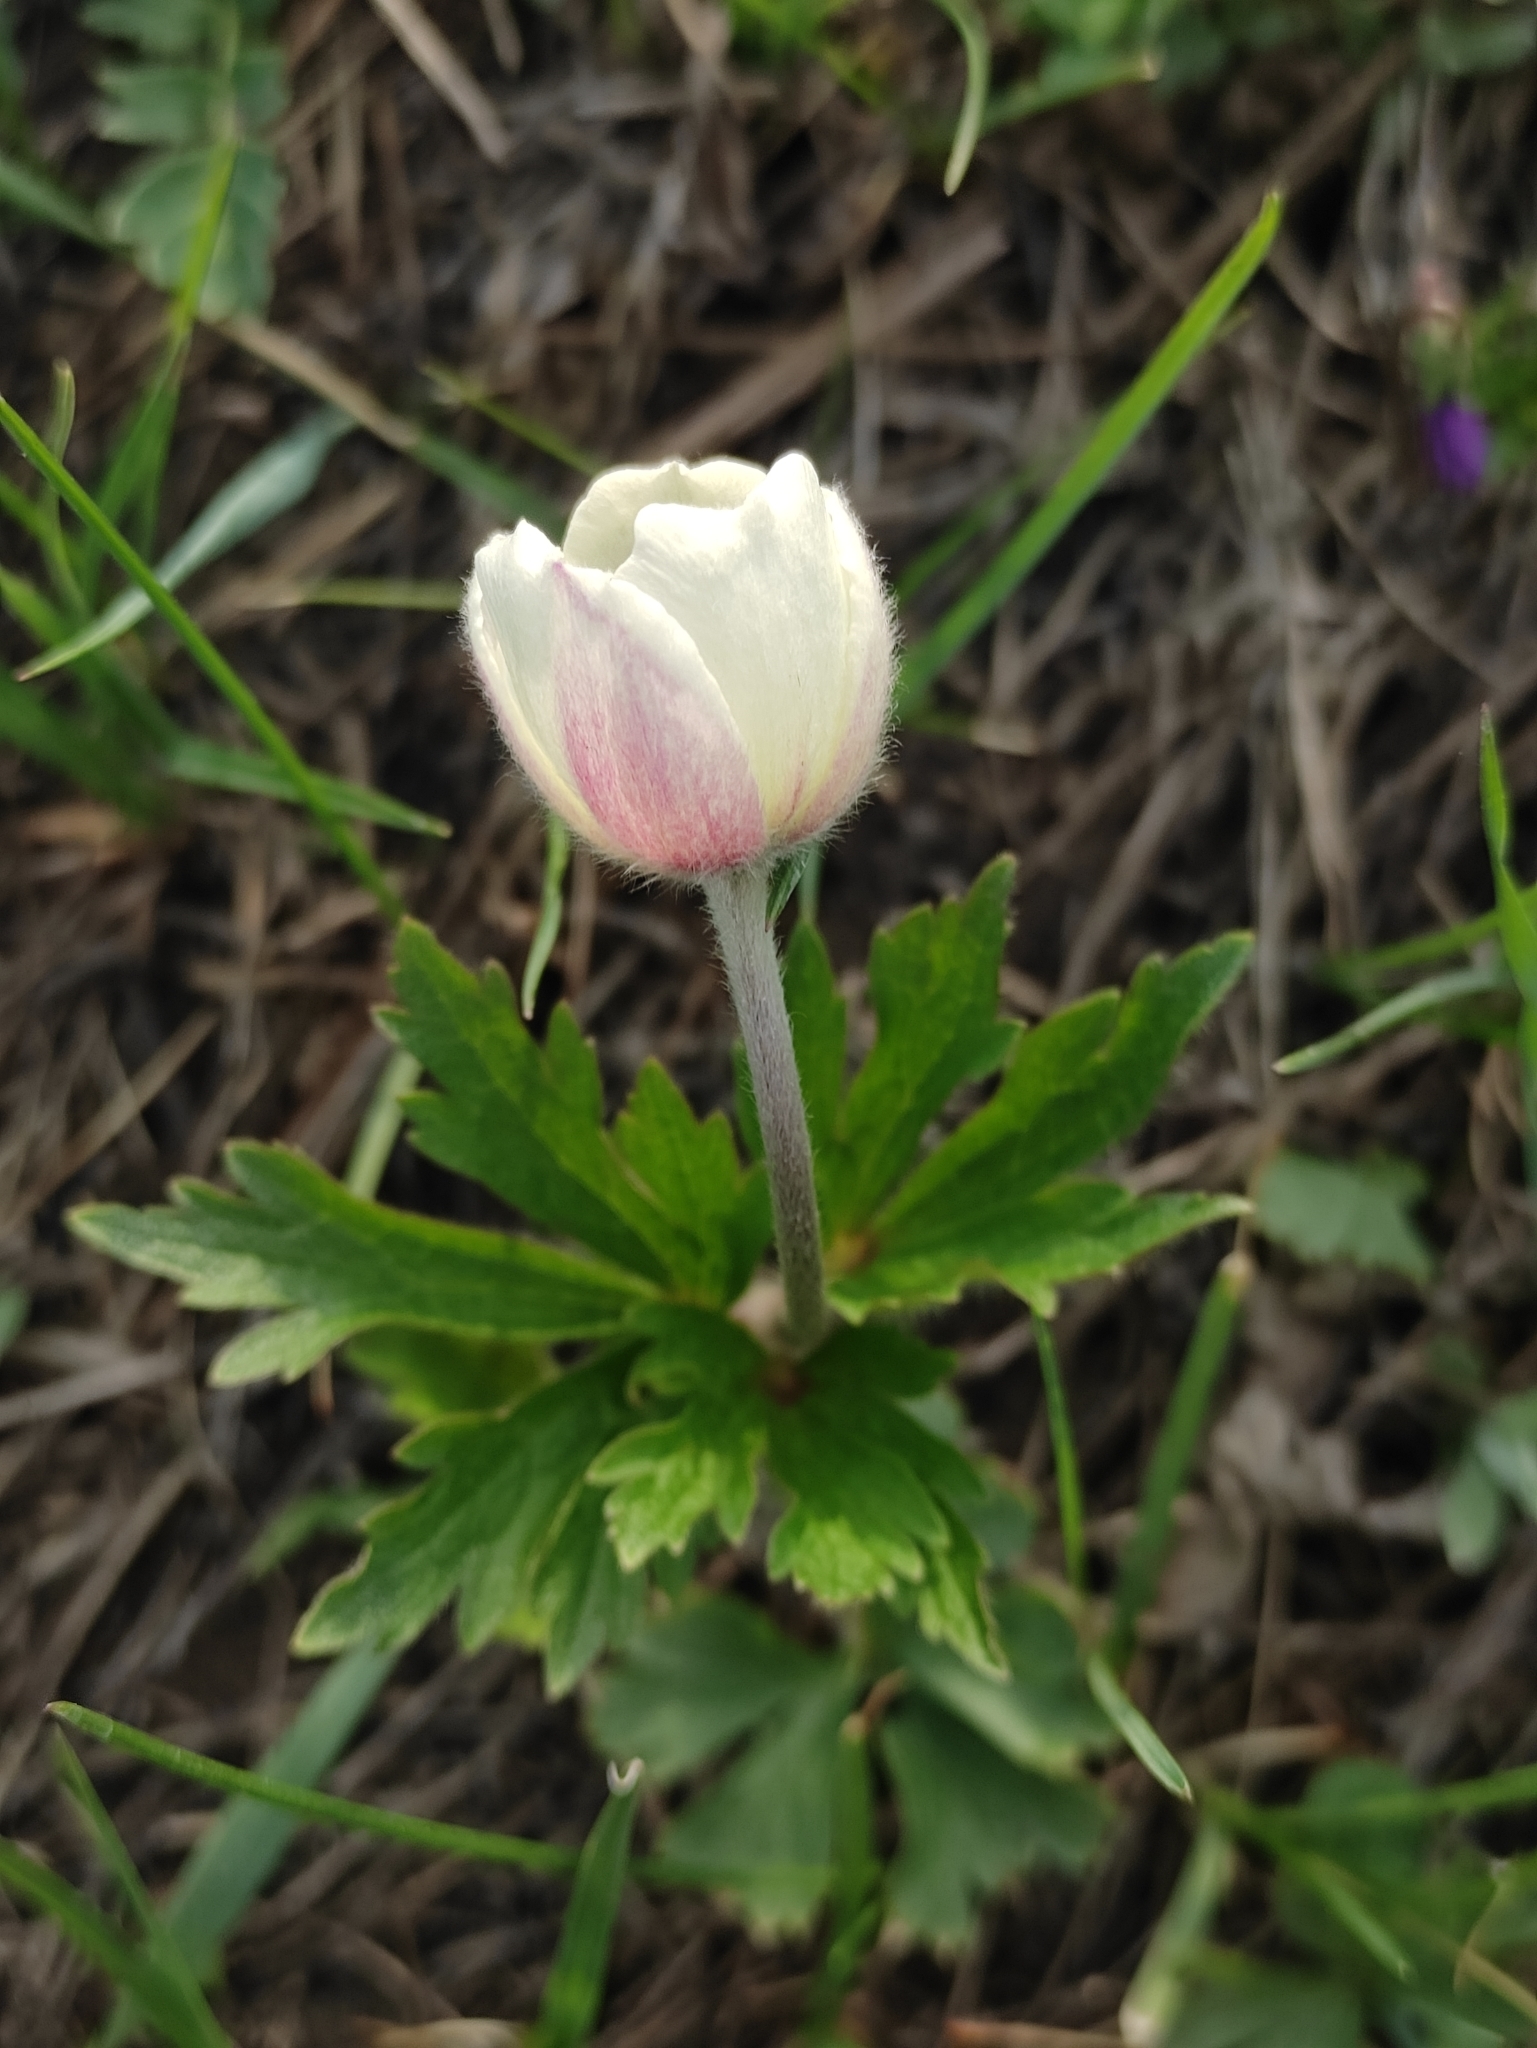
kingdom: Plantae
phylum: Tracheophyta
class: Magnoliopsida
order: Ranunculales
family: Ranunculaceae
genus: Anemone
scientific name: Anemone sylvestris
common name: Snowdrop anemone
